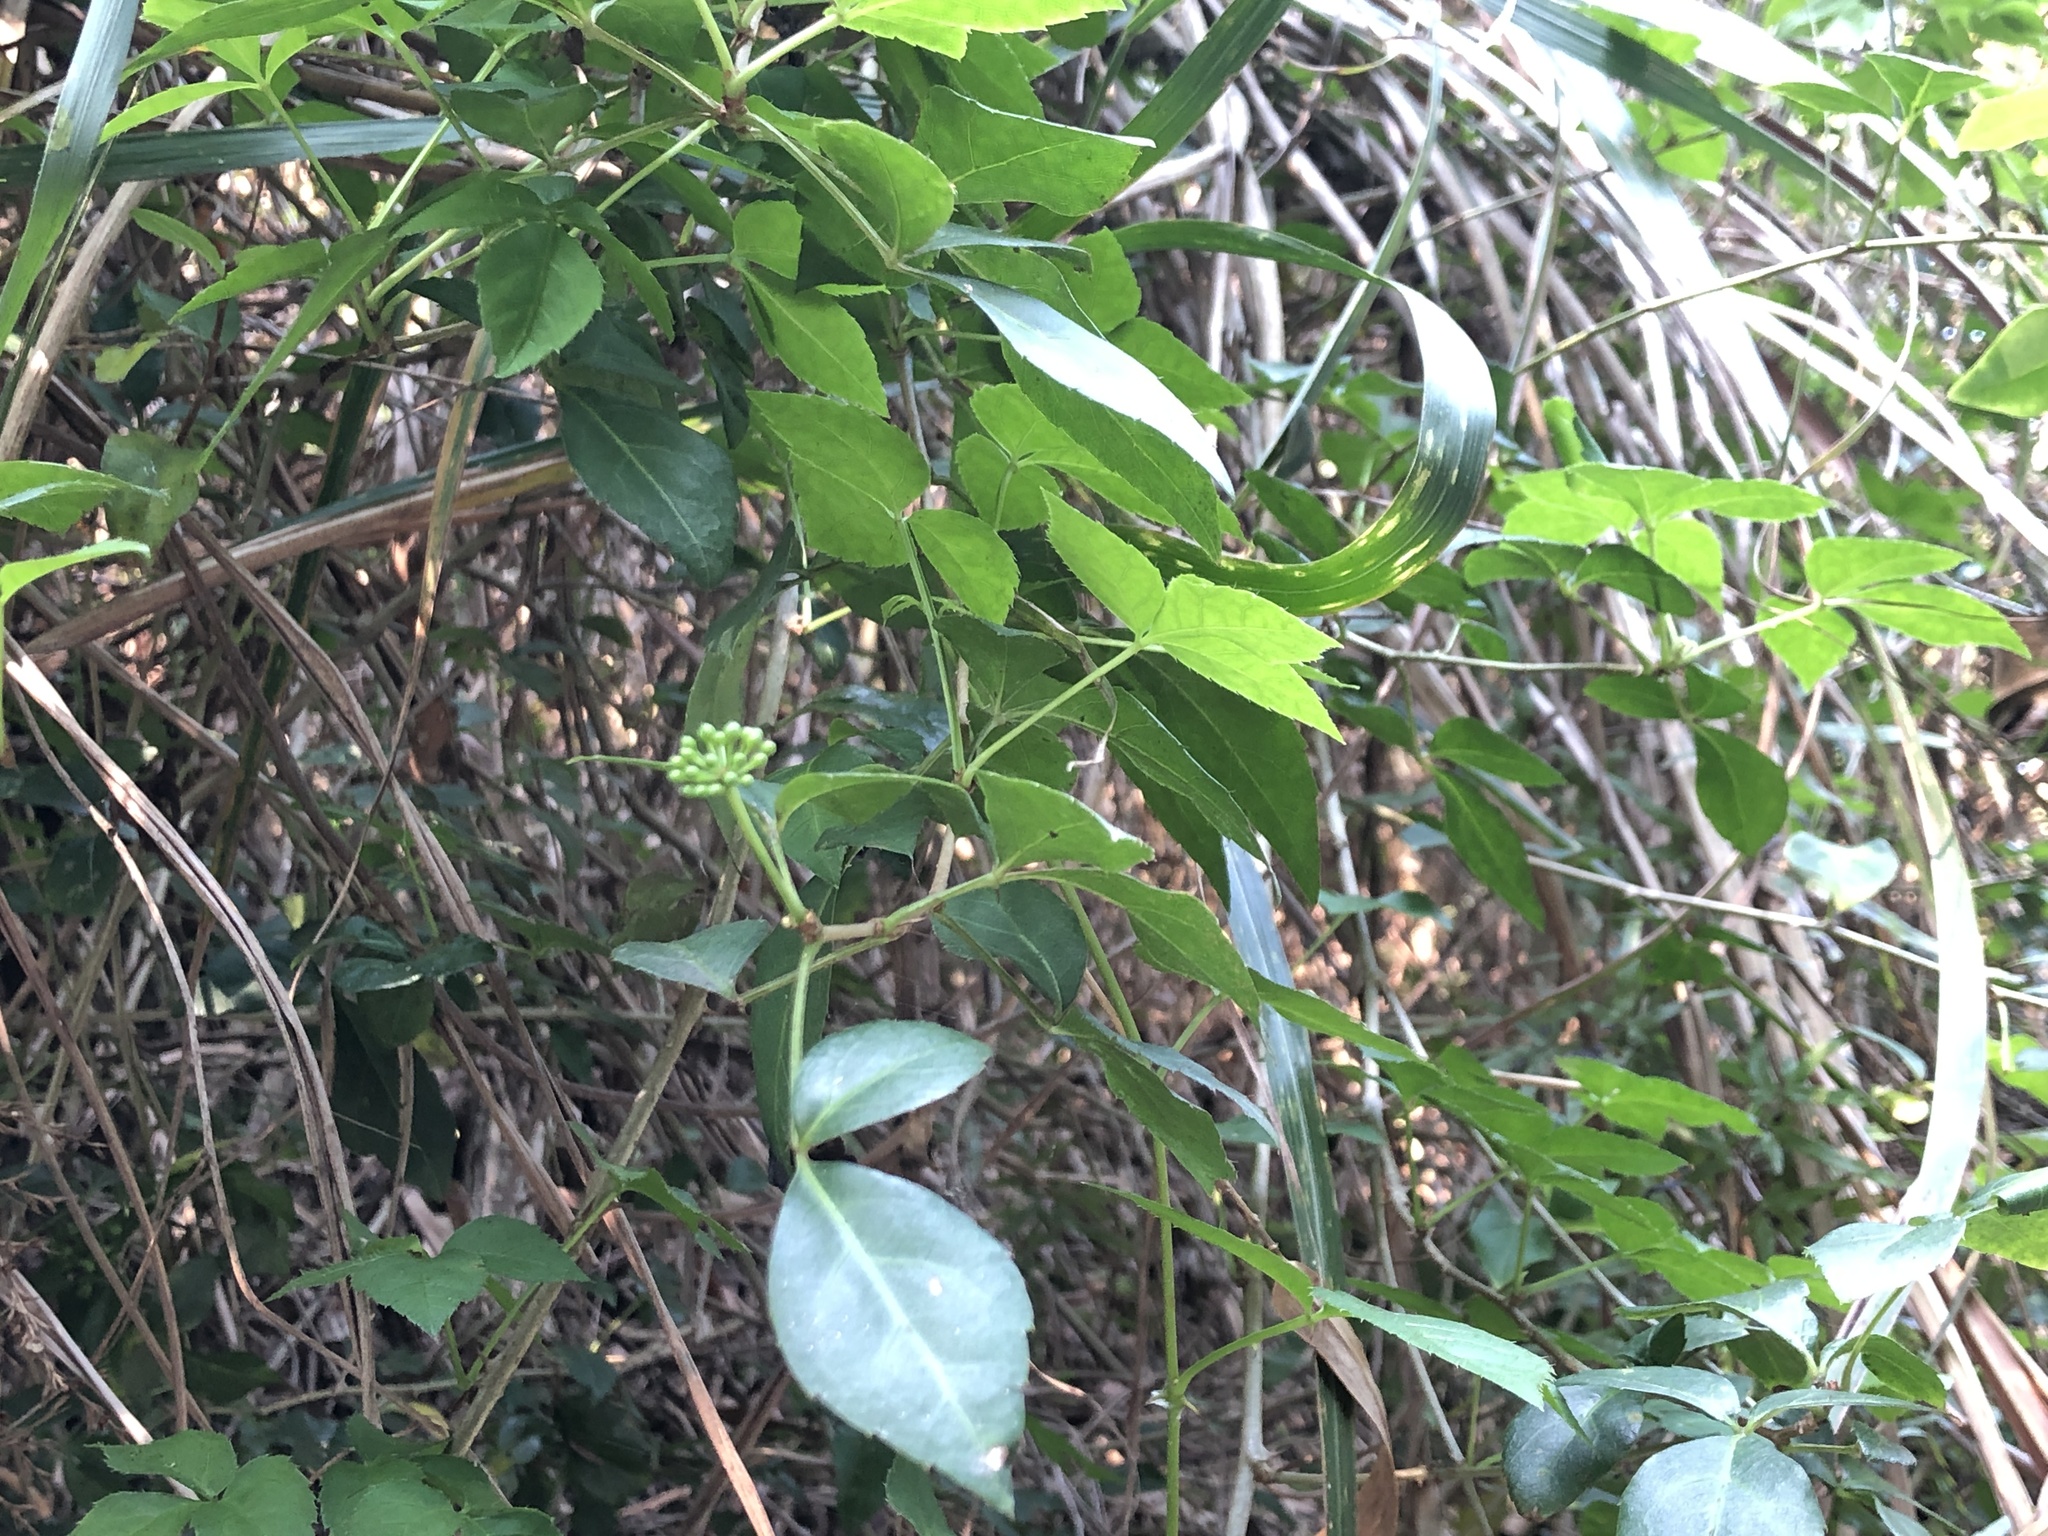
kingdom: Plantae
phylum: Tracheophyta
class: Magnoliopsida
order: Apiales
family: Araliaceae
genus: Eleutherococcus
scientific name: Eleutherococcus trifoliatus
